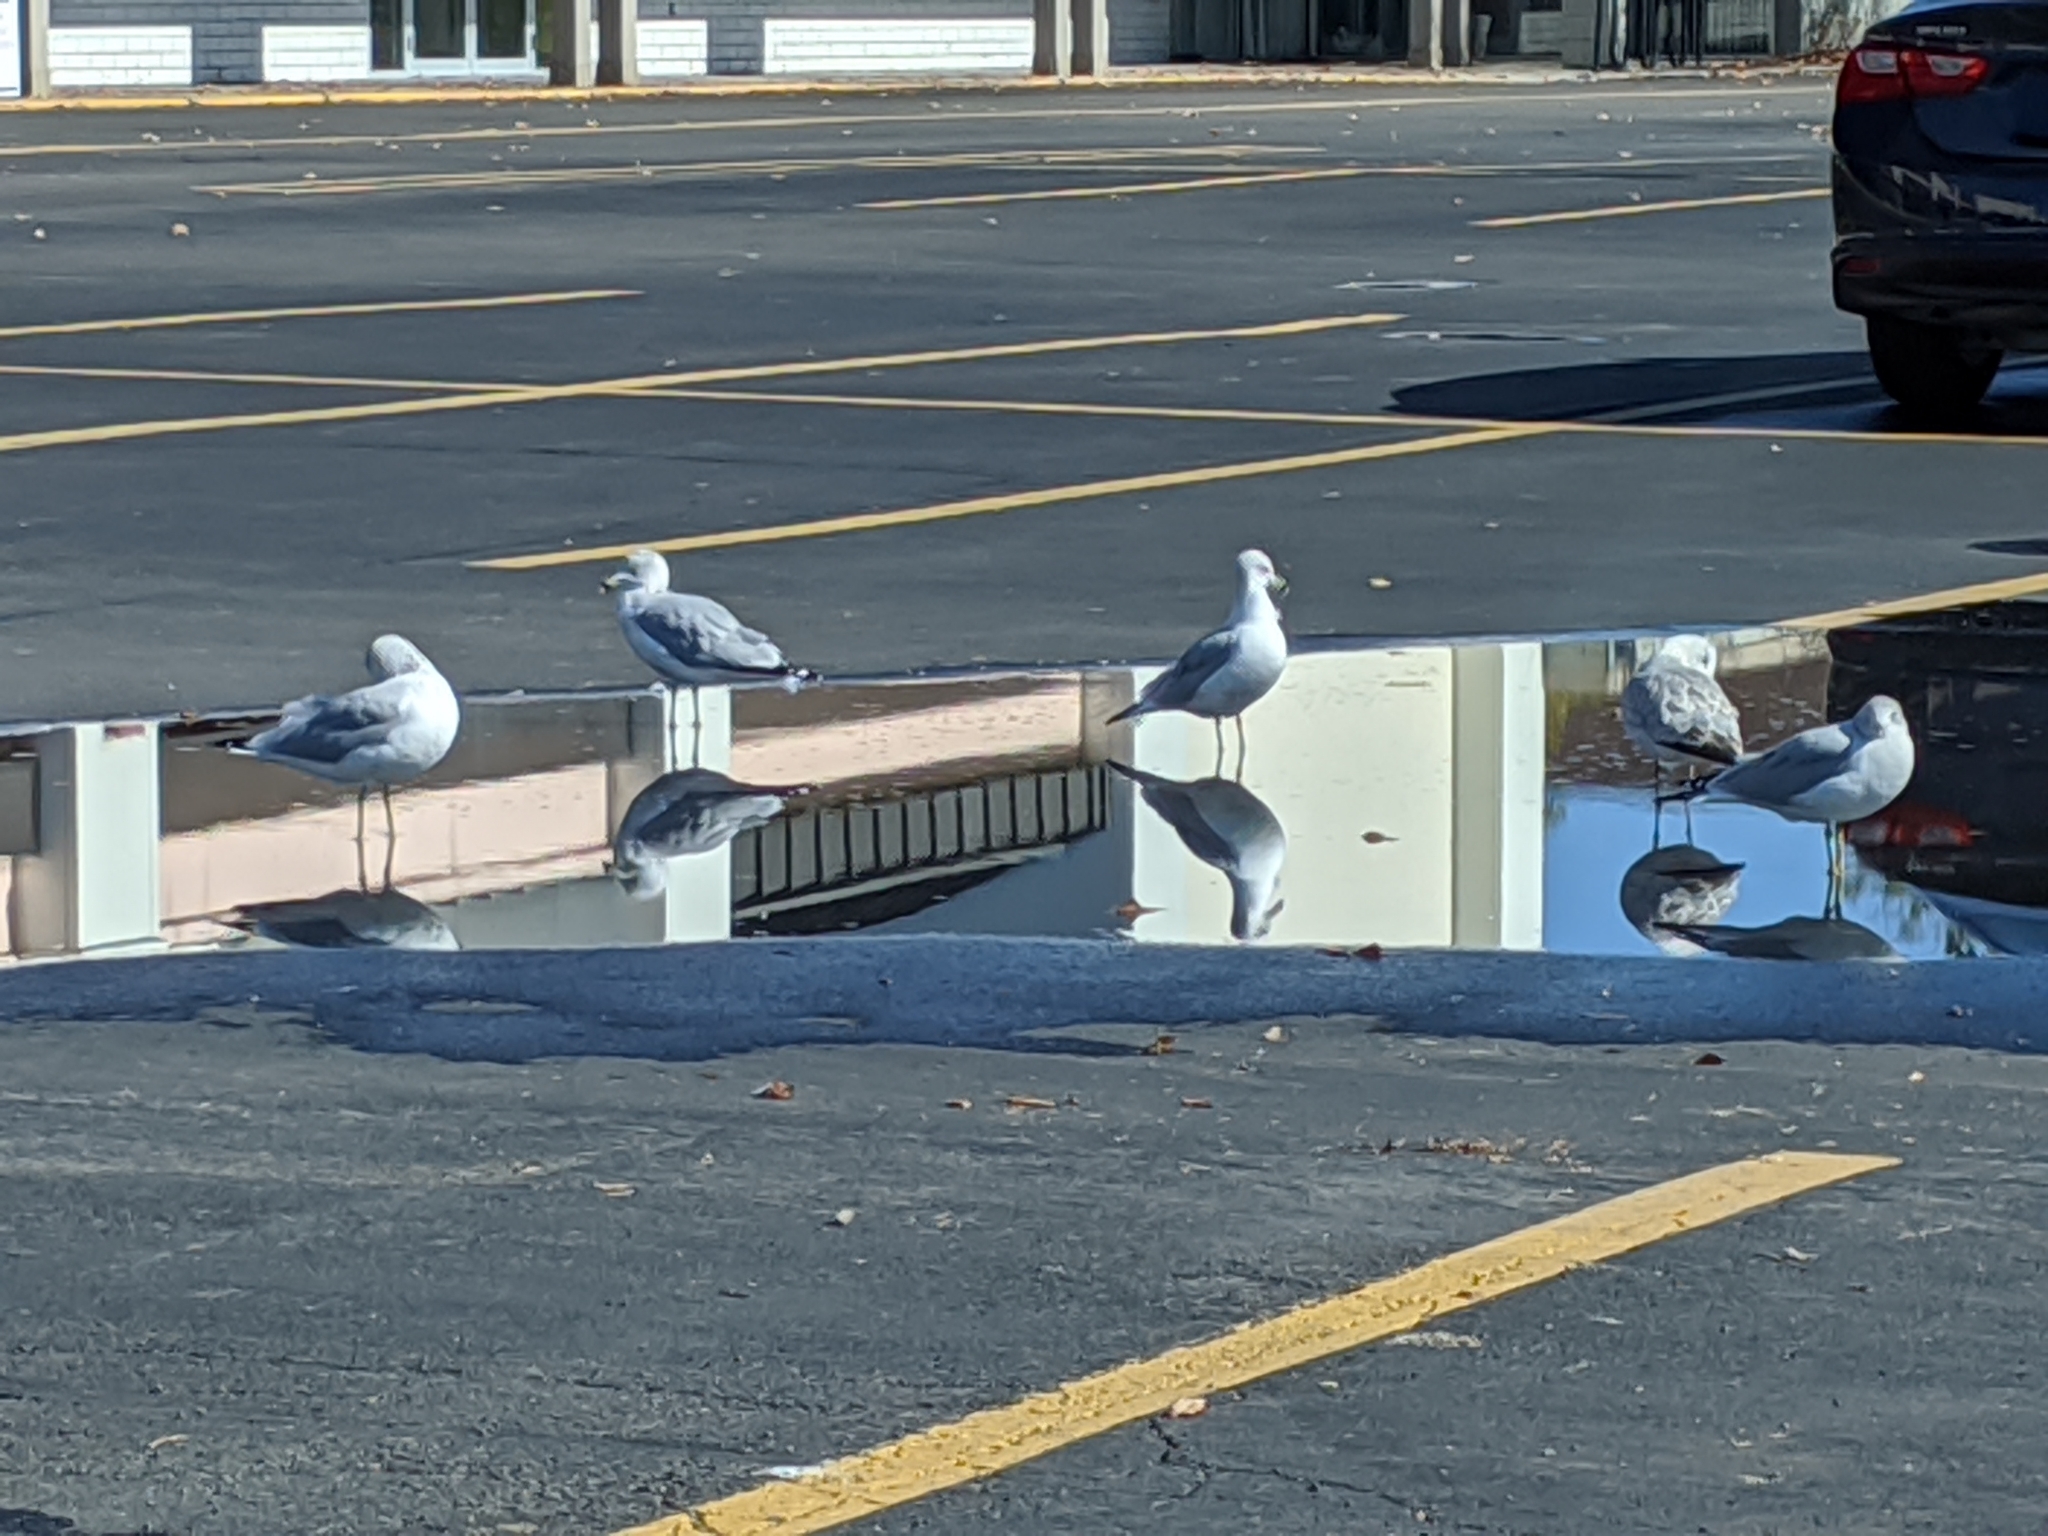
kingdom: Animalia
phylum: Chordata
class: Aves
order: Charadriiformes
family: Laridae
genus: Larus
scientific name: Larus delawarensis
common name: Ring-billed gull
